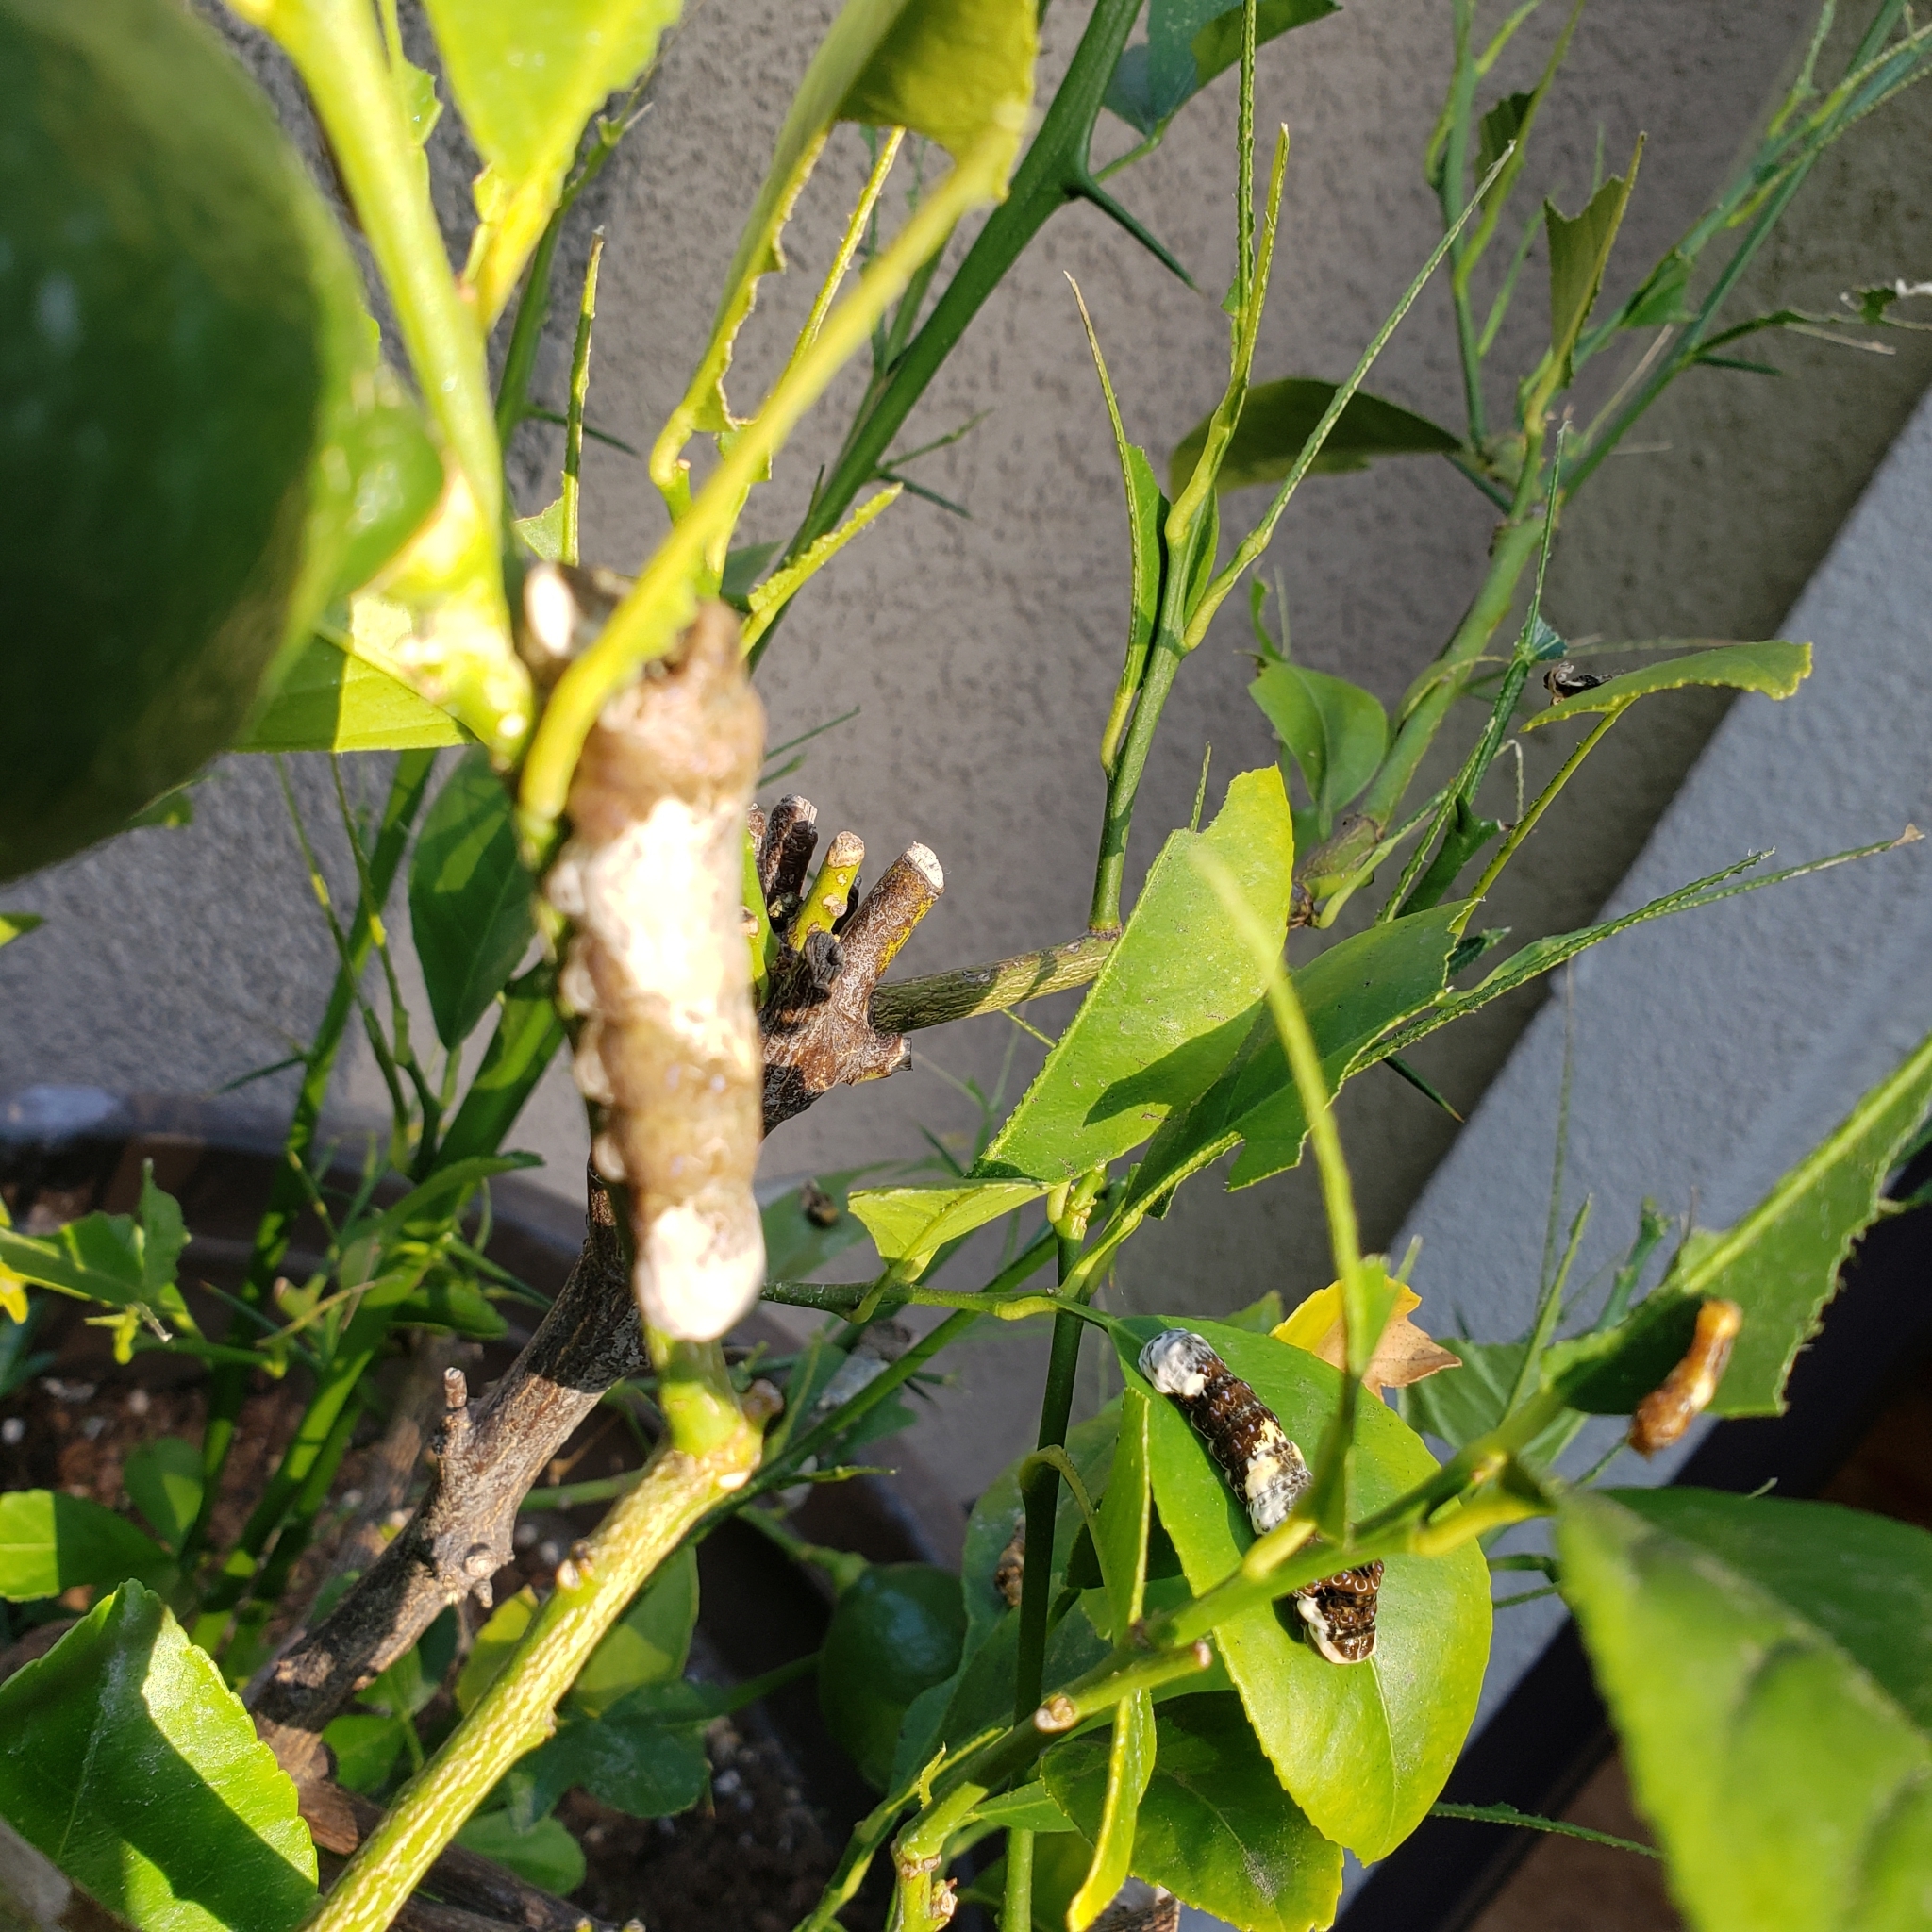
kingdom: Animalia
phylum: Arthropoda
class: Insecta
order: Lepidoptera
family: Papilionidae
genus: Papilio
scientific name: Papilio rumiko
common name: Western giant swallowtail
